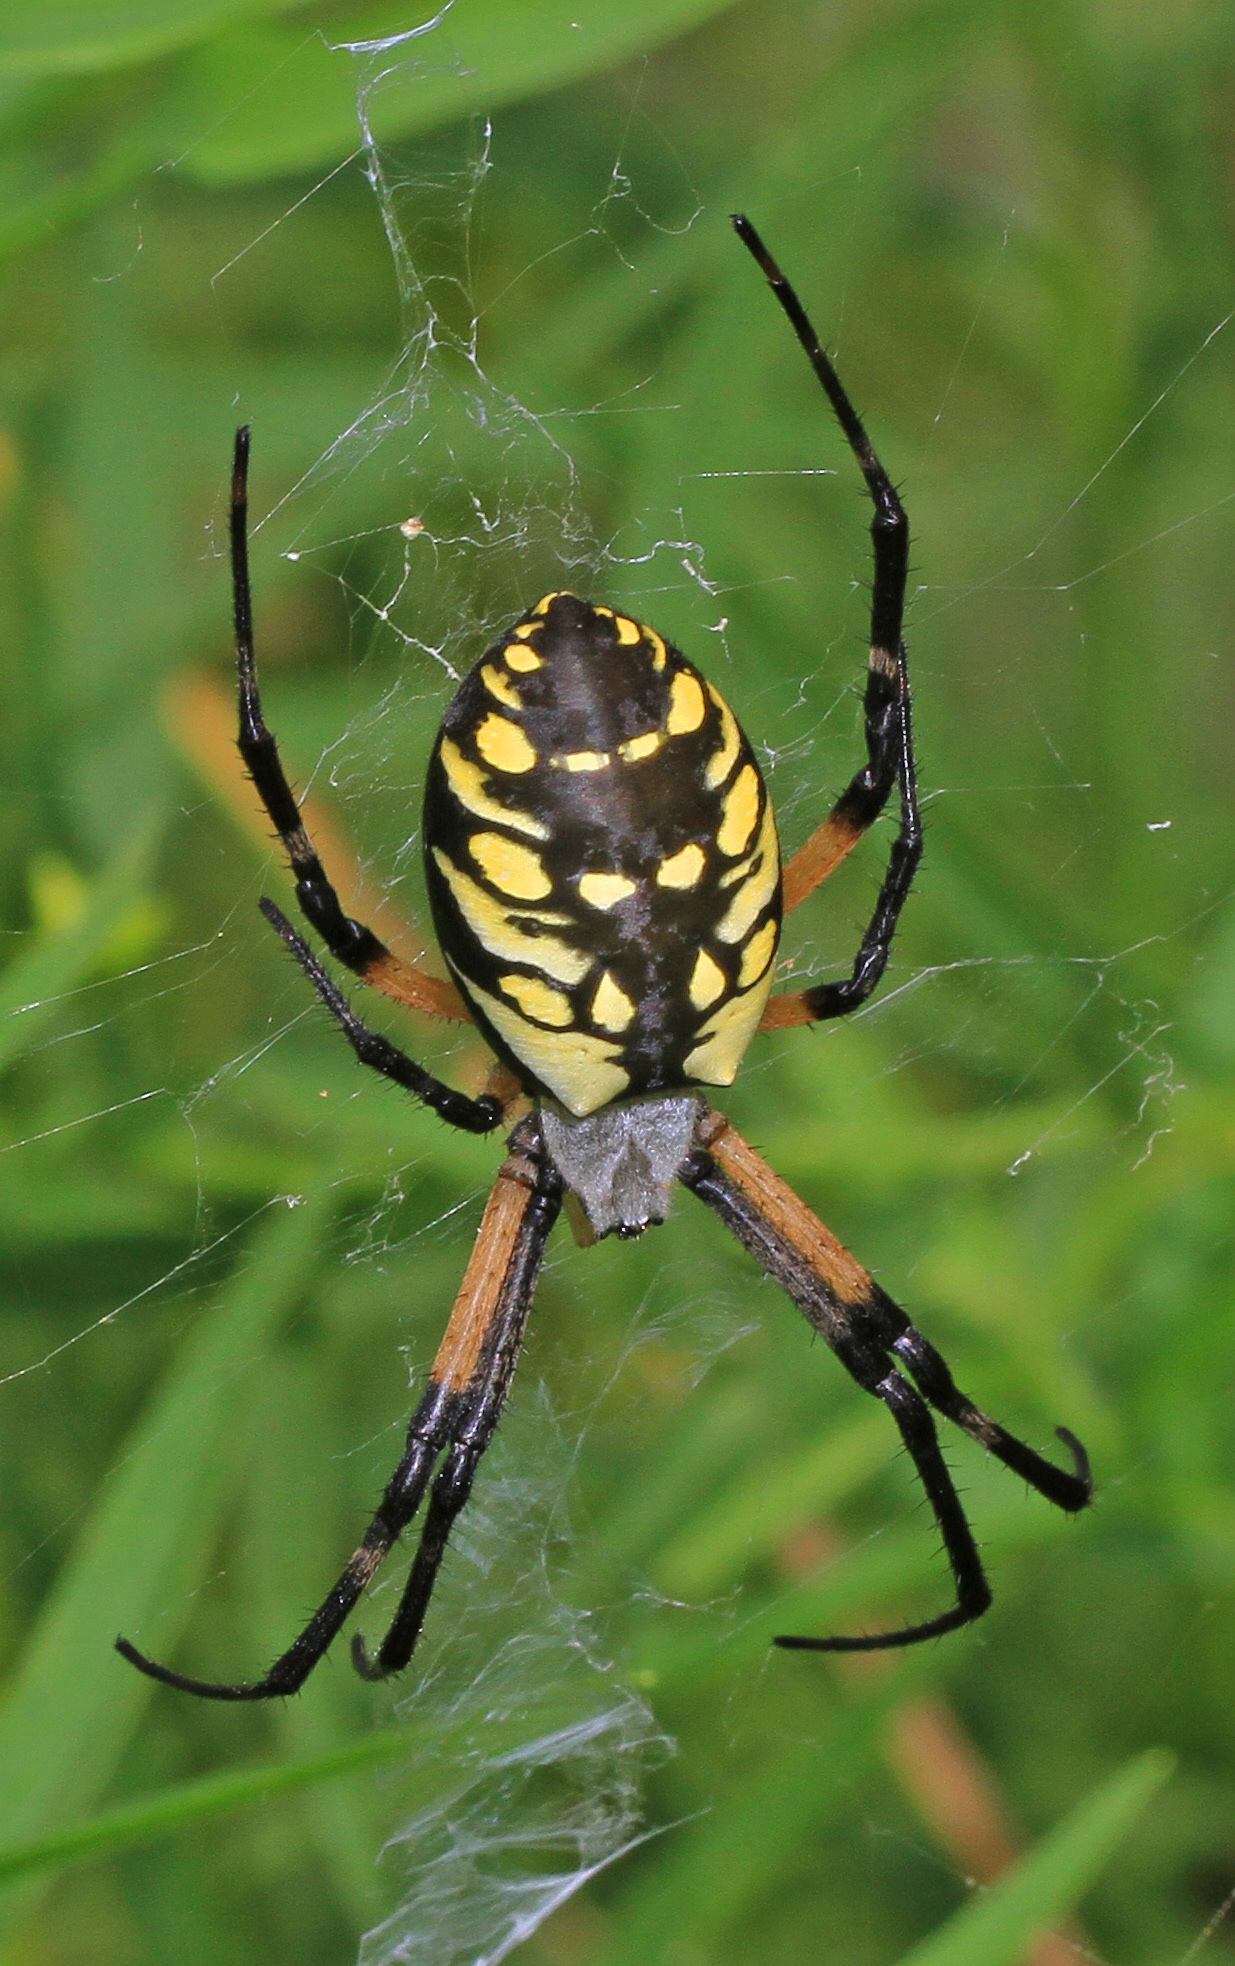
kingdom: Animalia
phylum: Arthropoda
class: Arachnida
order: Araneae
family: Araneidae
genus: Argiope
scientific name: Argiope aurantia
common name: Orb weavers
